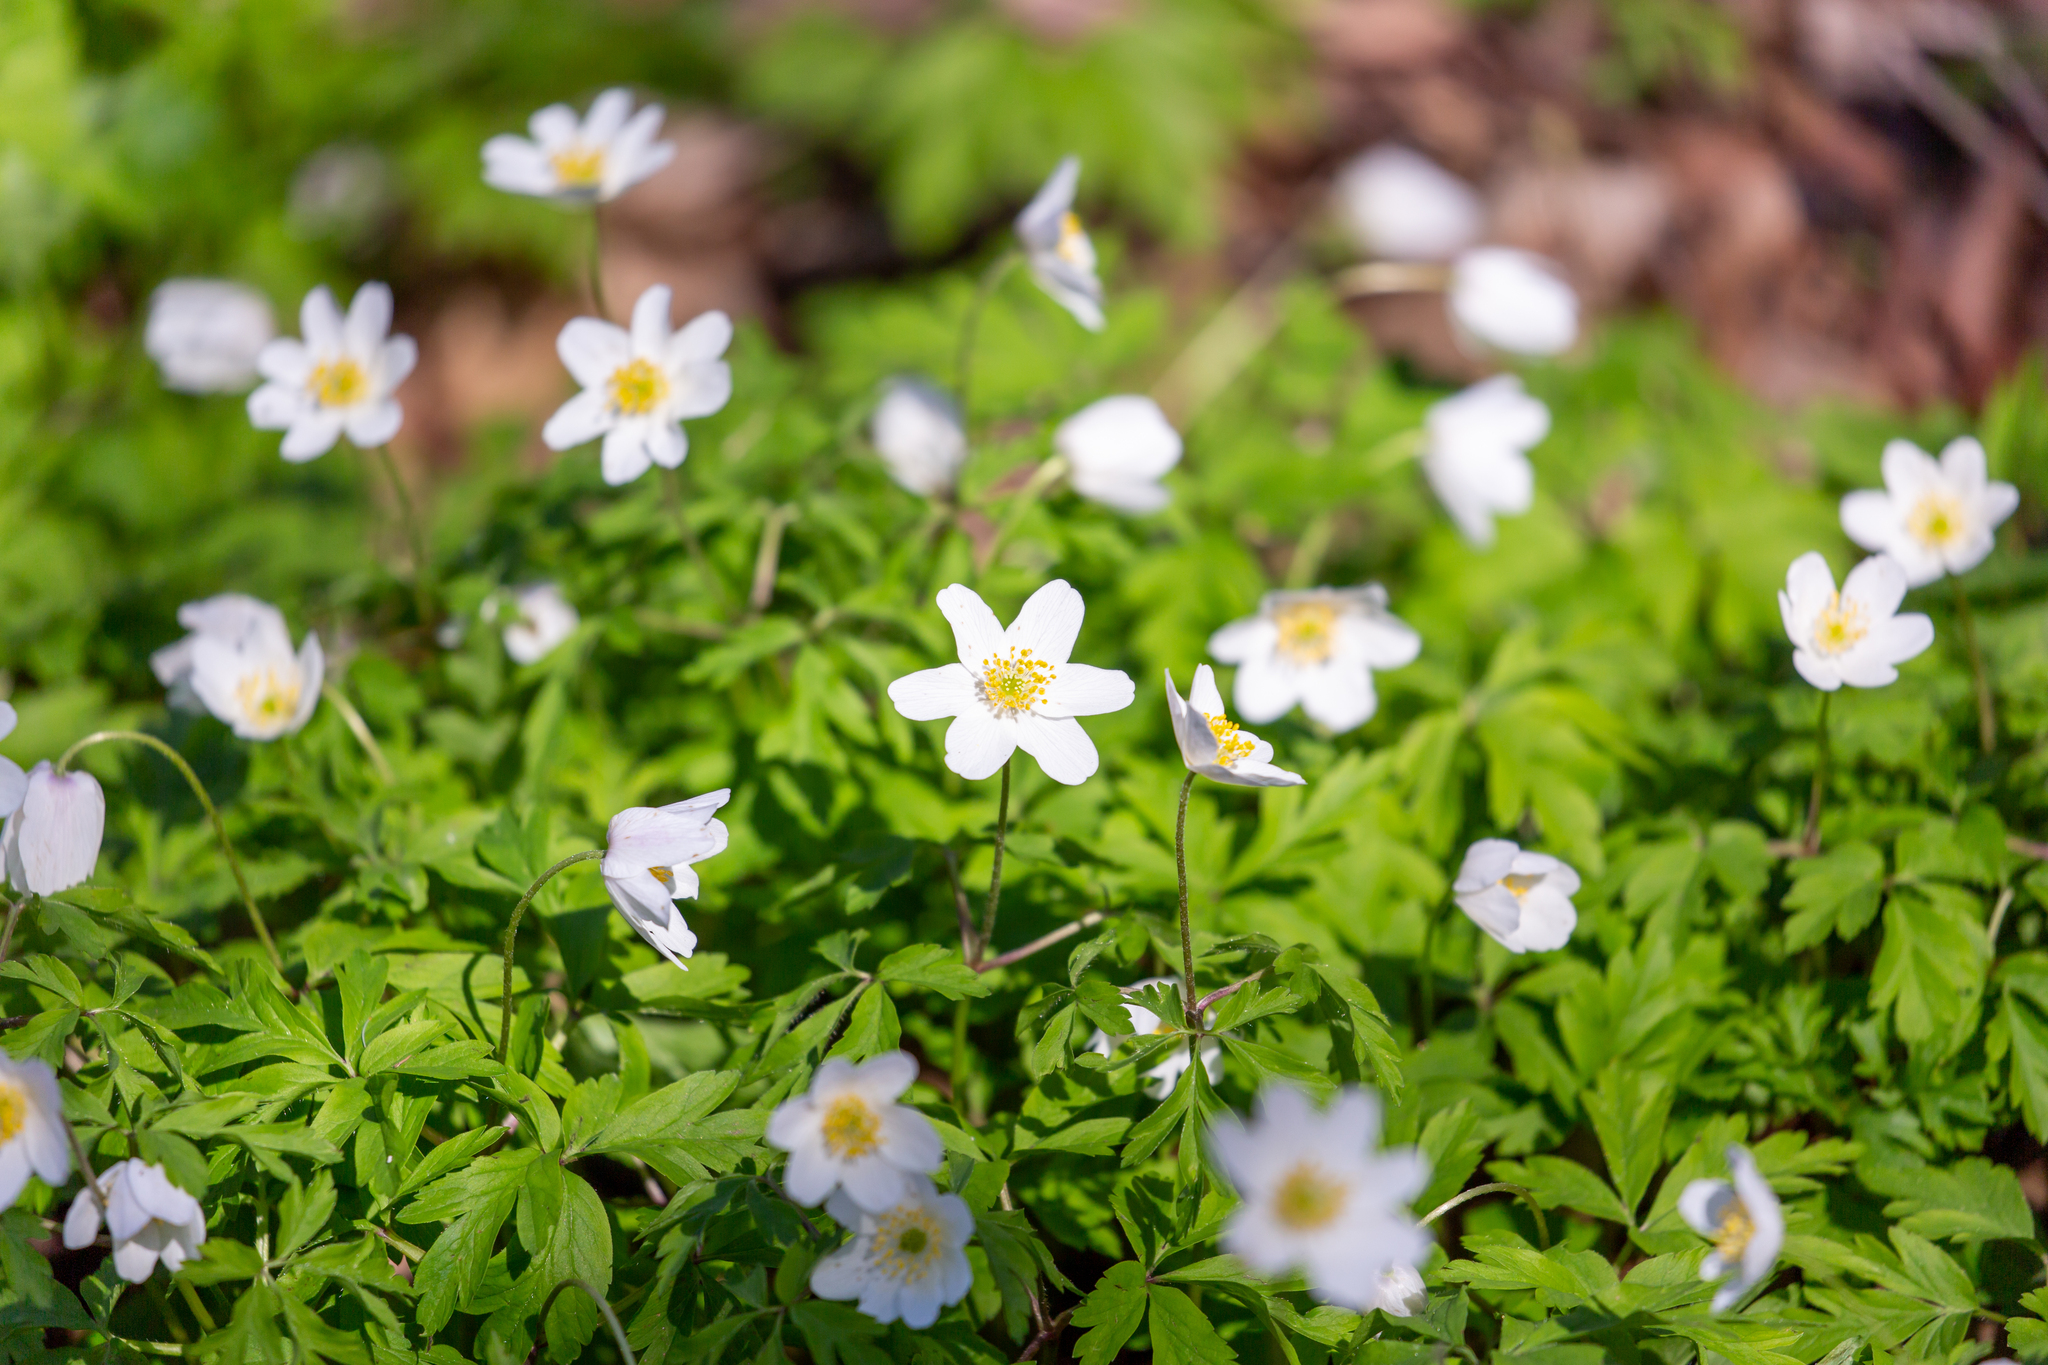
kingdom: Plantae
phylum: Tracheophyta
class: Magnoliopsida
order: Ranunculales
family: Ranunculaceae
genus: Anemone
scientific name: Anemone nemorosa
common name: Wood anemone
